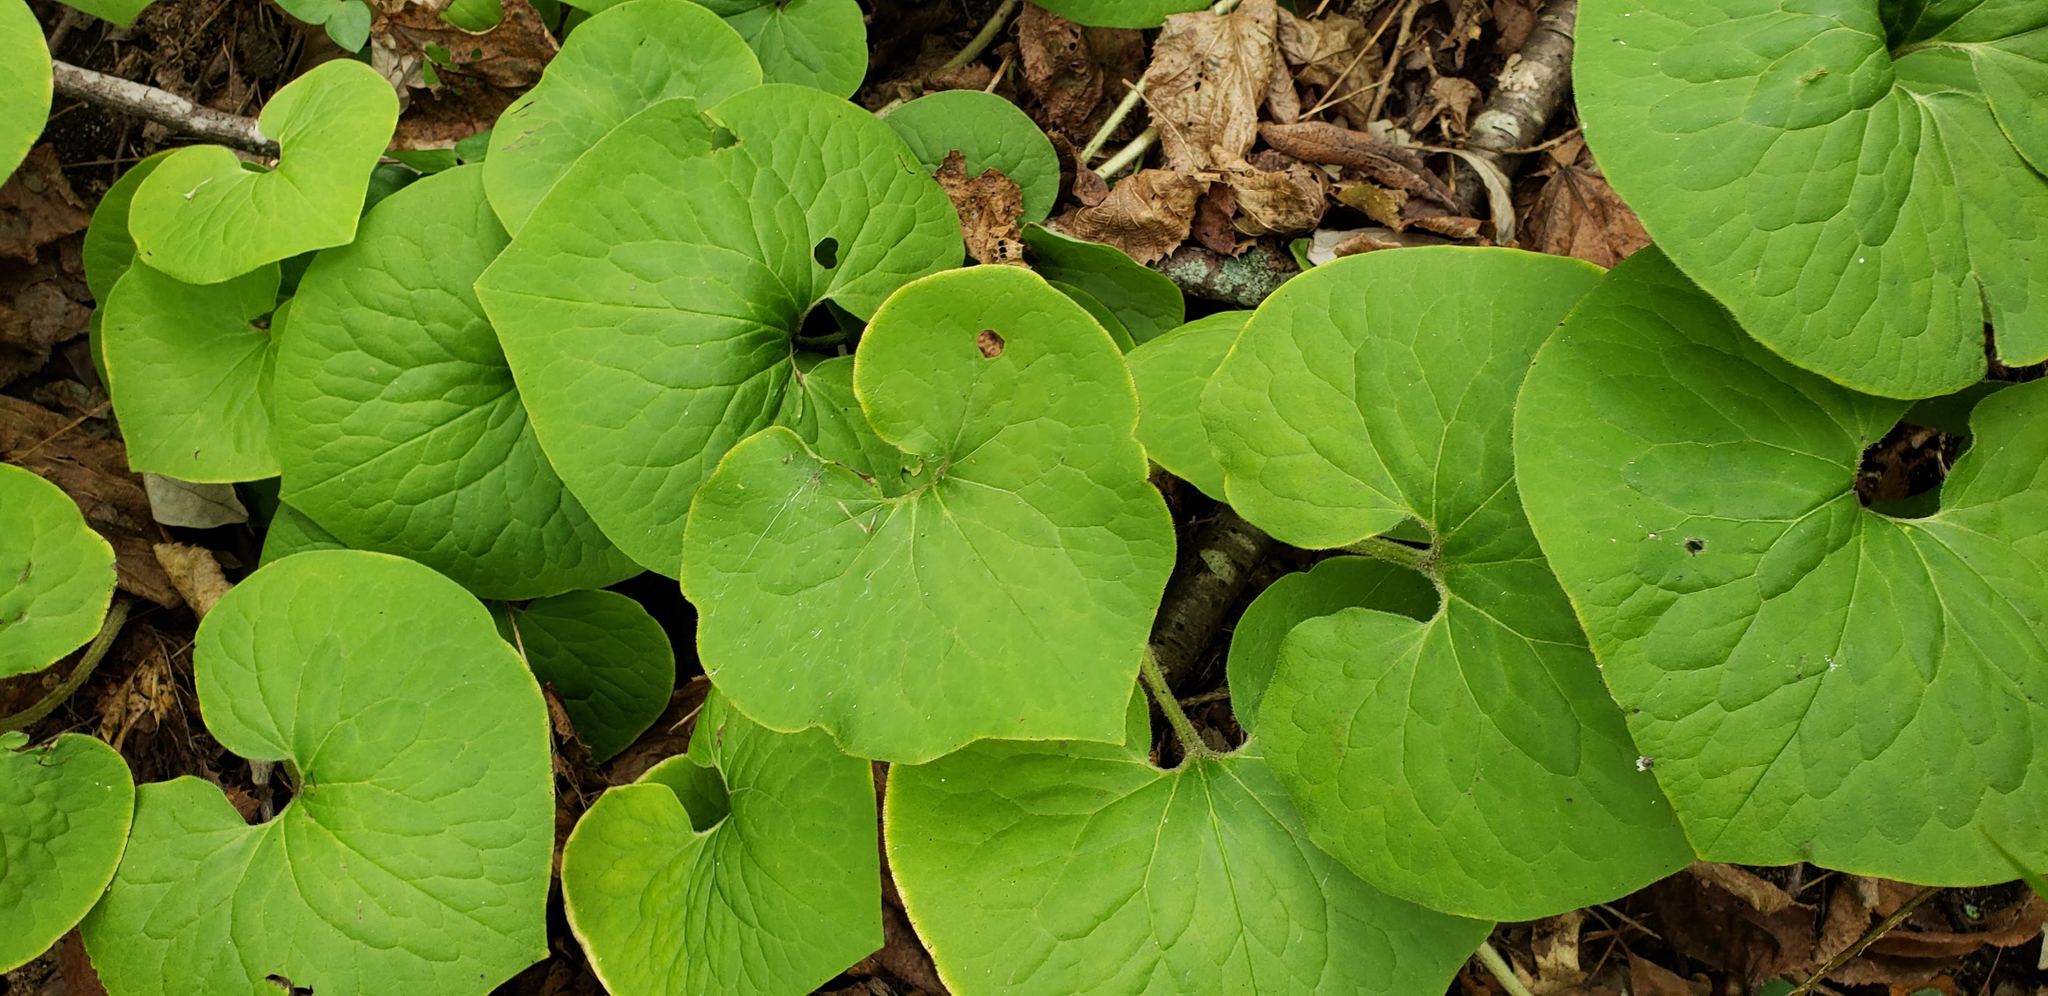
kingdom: Plantae
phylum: Tracheophyta
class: Magnoliopsida
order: Piperales
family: Aristolochiaceae
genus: Asarum
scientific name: Asarum canadense
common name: Wild ginger
